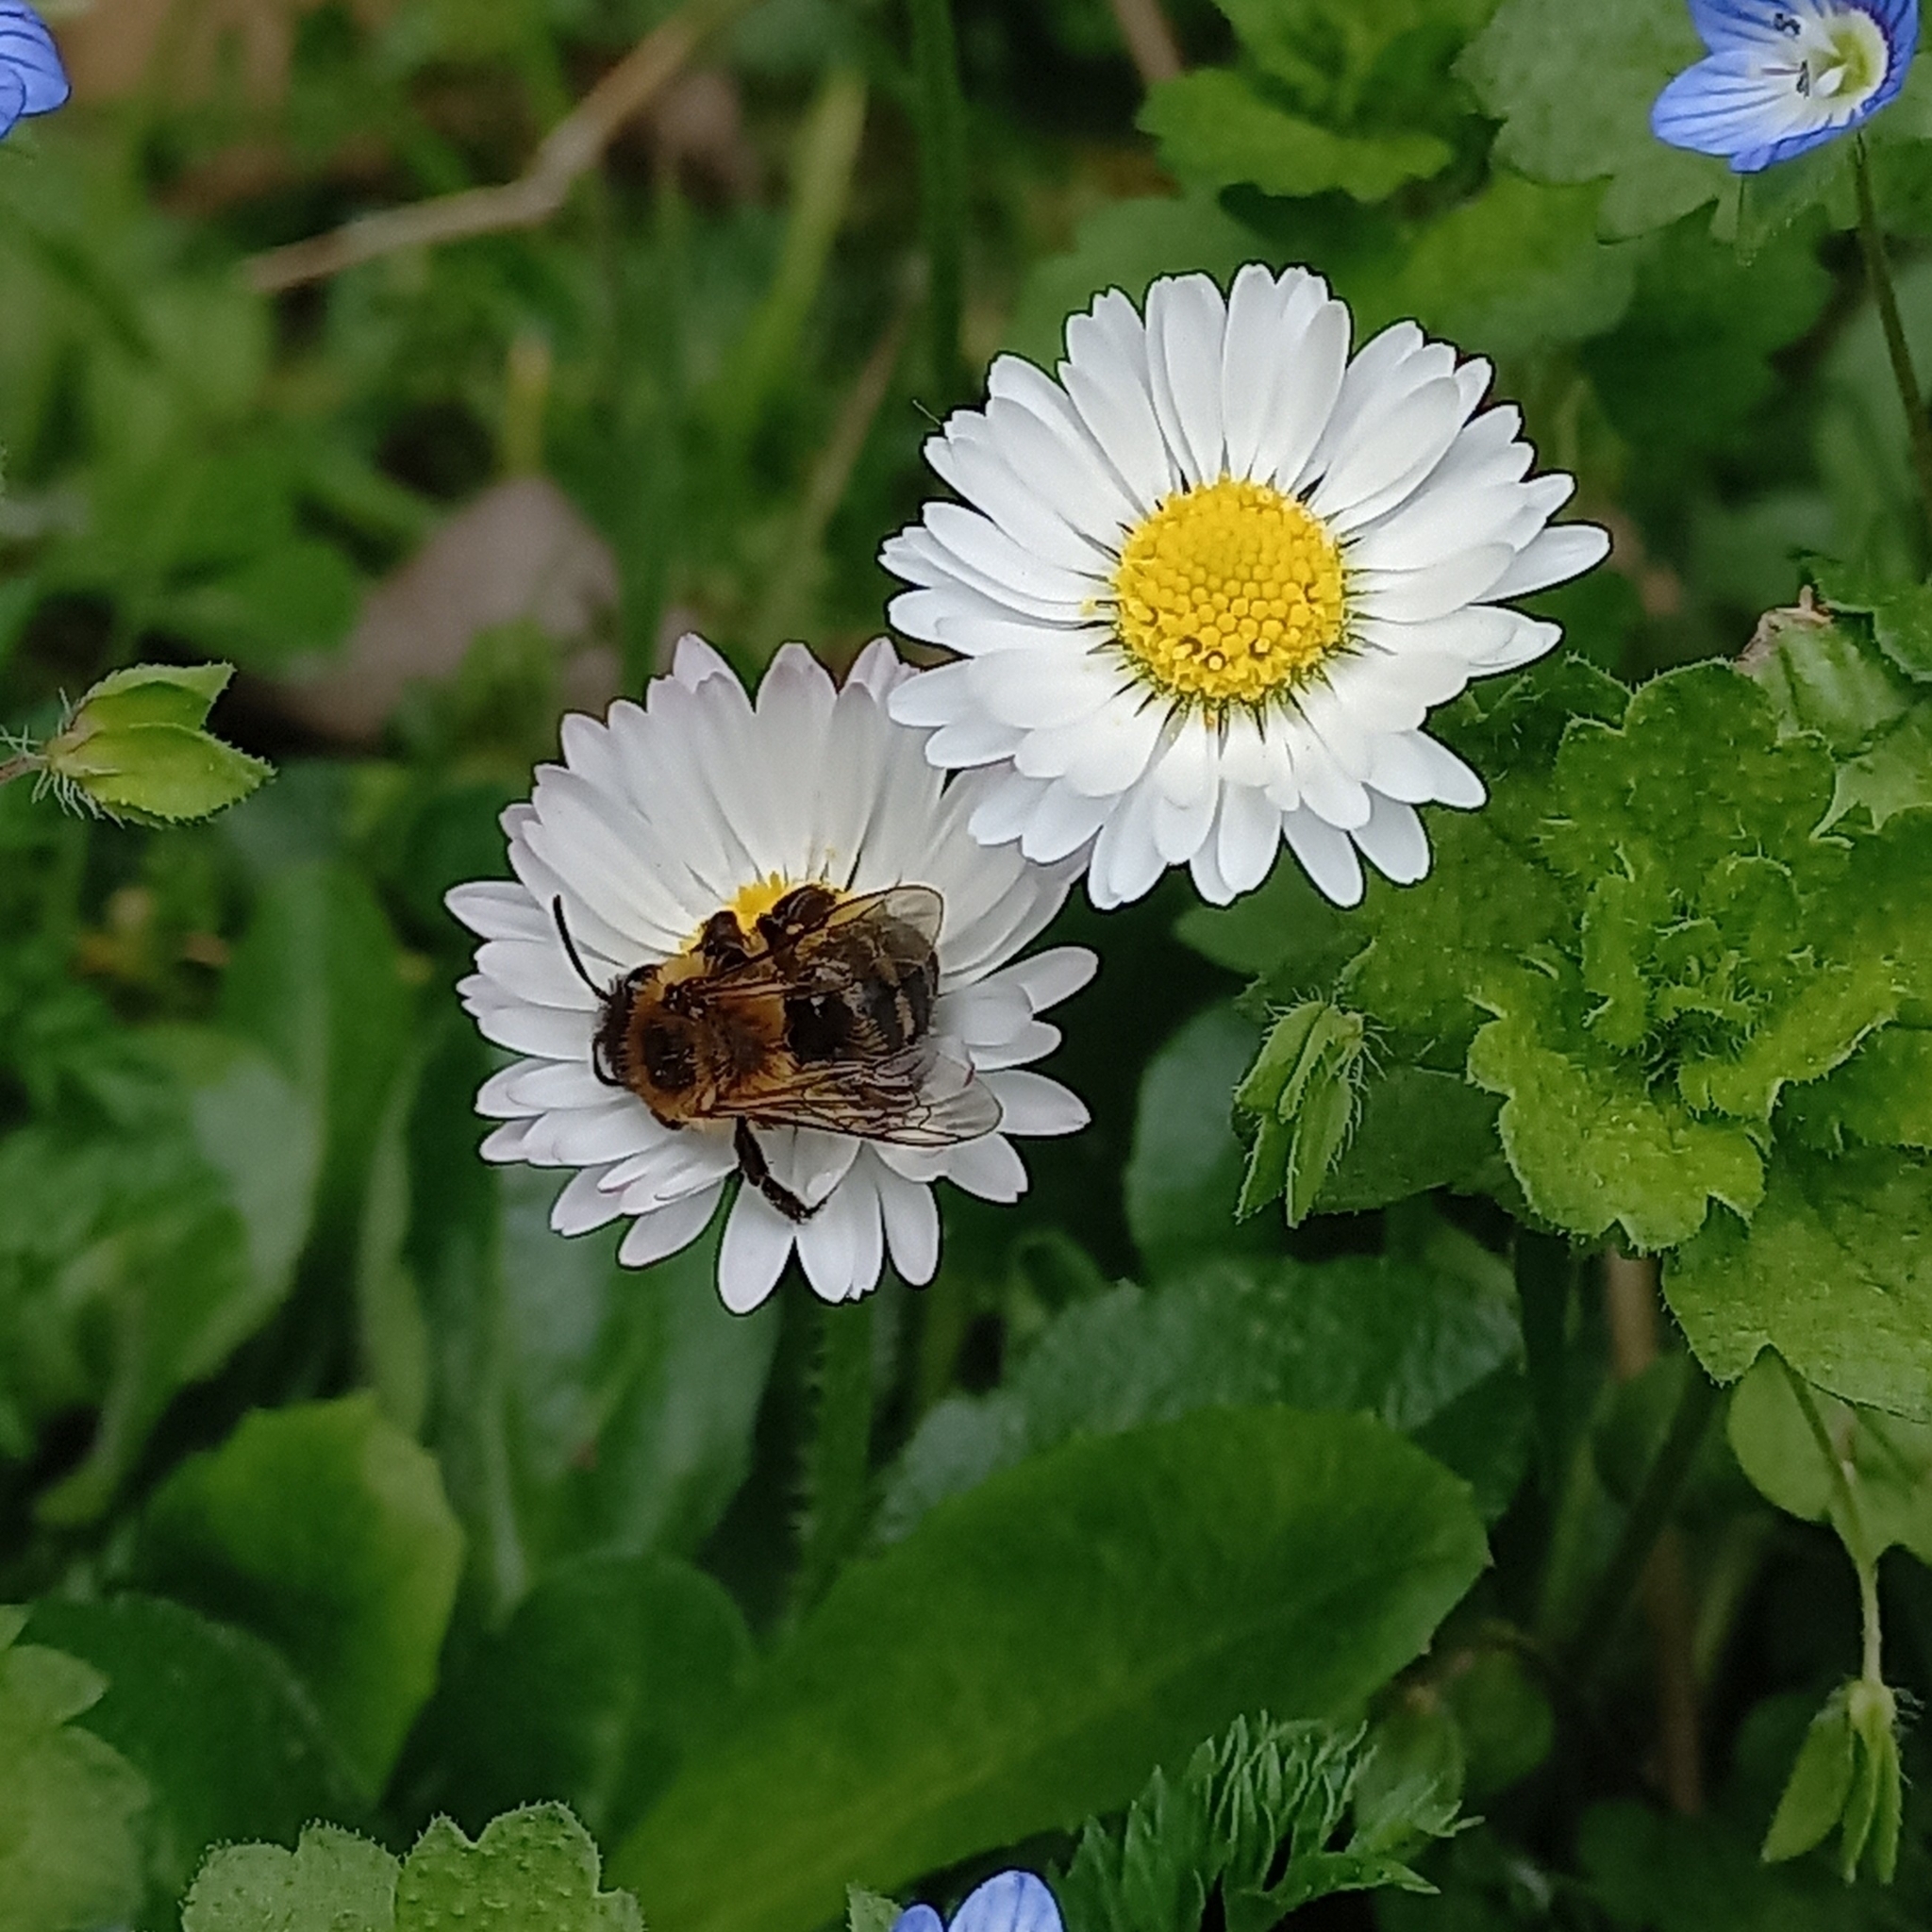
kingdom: Animalia
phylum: Arthropoda
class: Insecta
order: Hymenoptera
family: Apidae
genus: Apis
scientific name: Apis mellifera
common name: Honey bee
